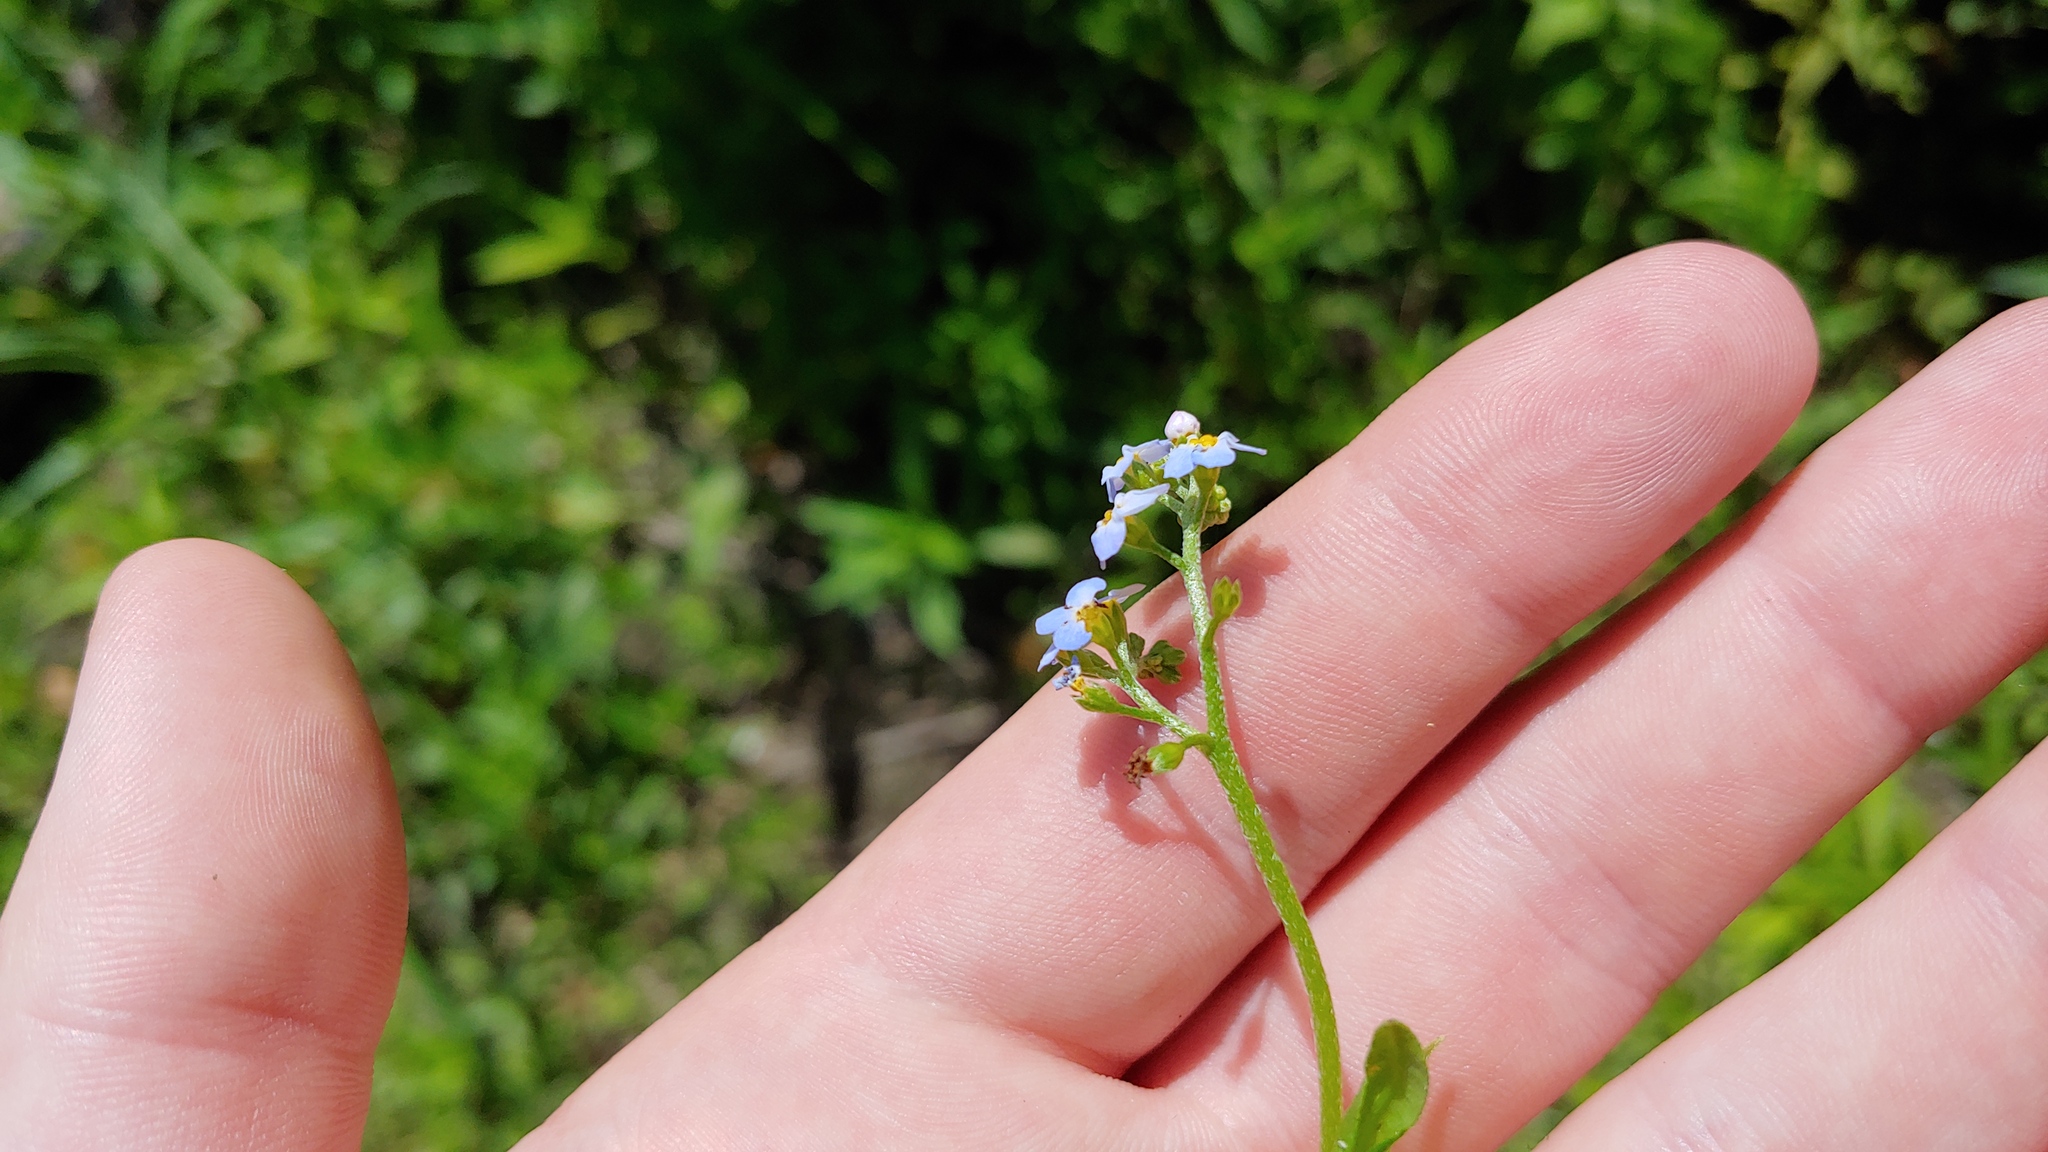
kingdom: Plantae
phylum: Tracheophyta
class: Magnoliopsida
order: Boraginales
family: Boraginaceae
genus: Myosotis
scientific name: Myosotis scorpioides
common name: Water forget-me-not
